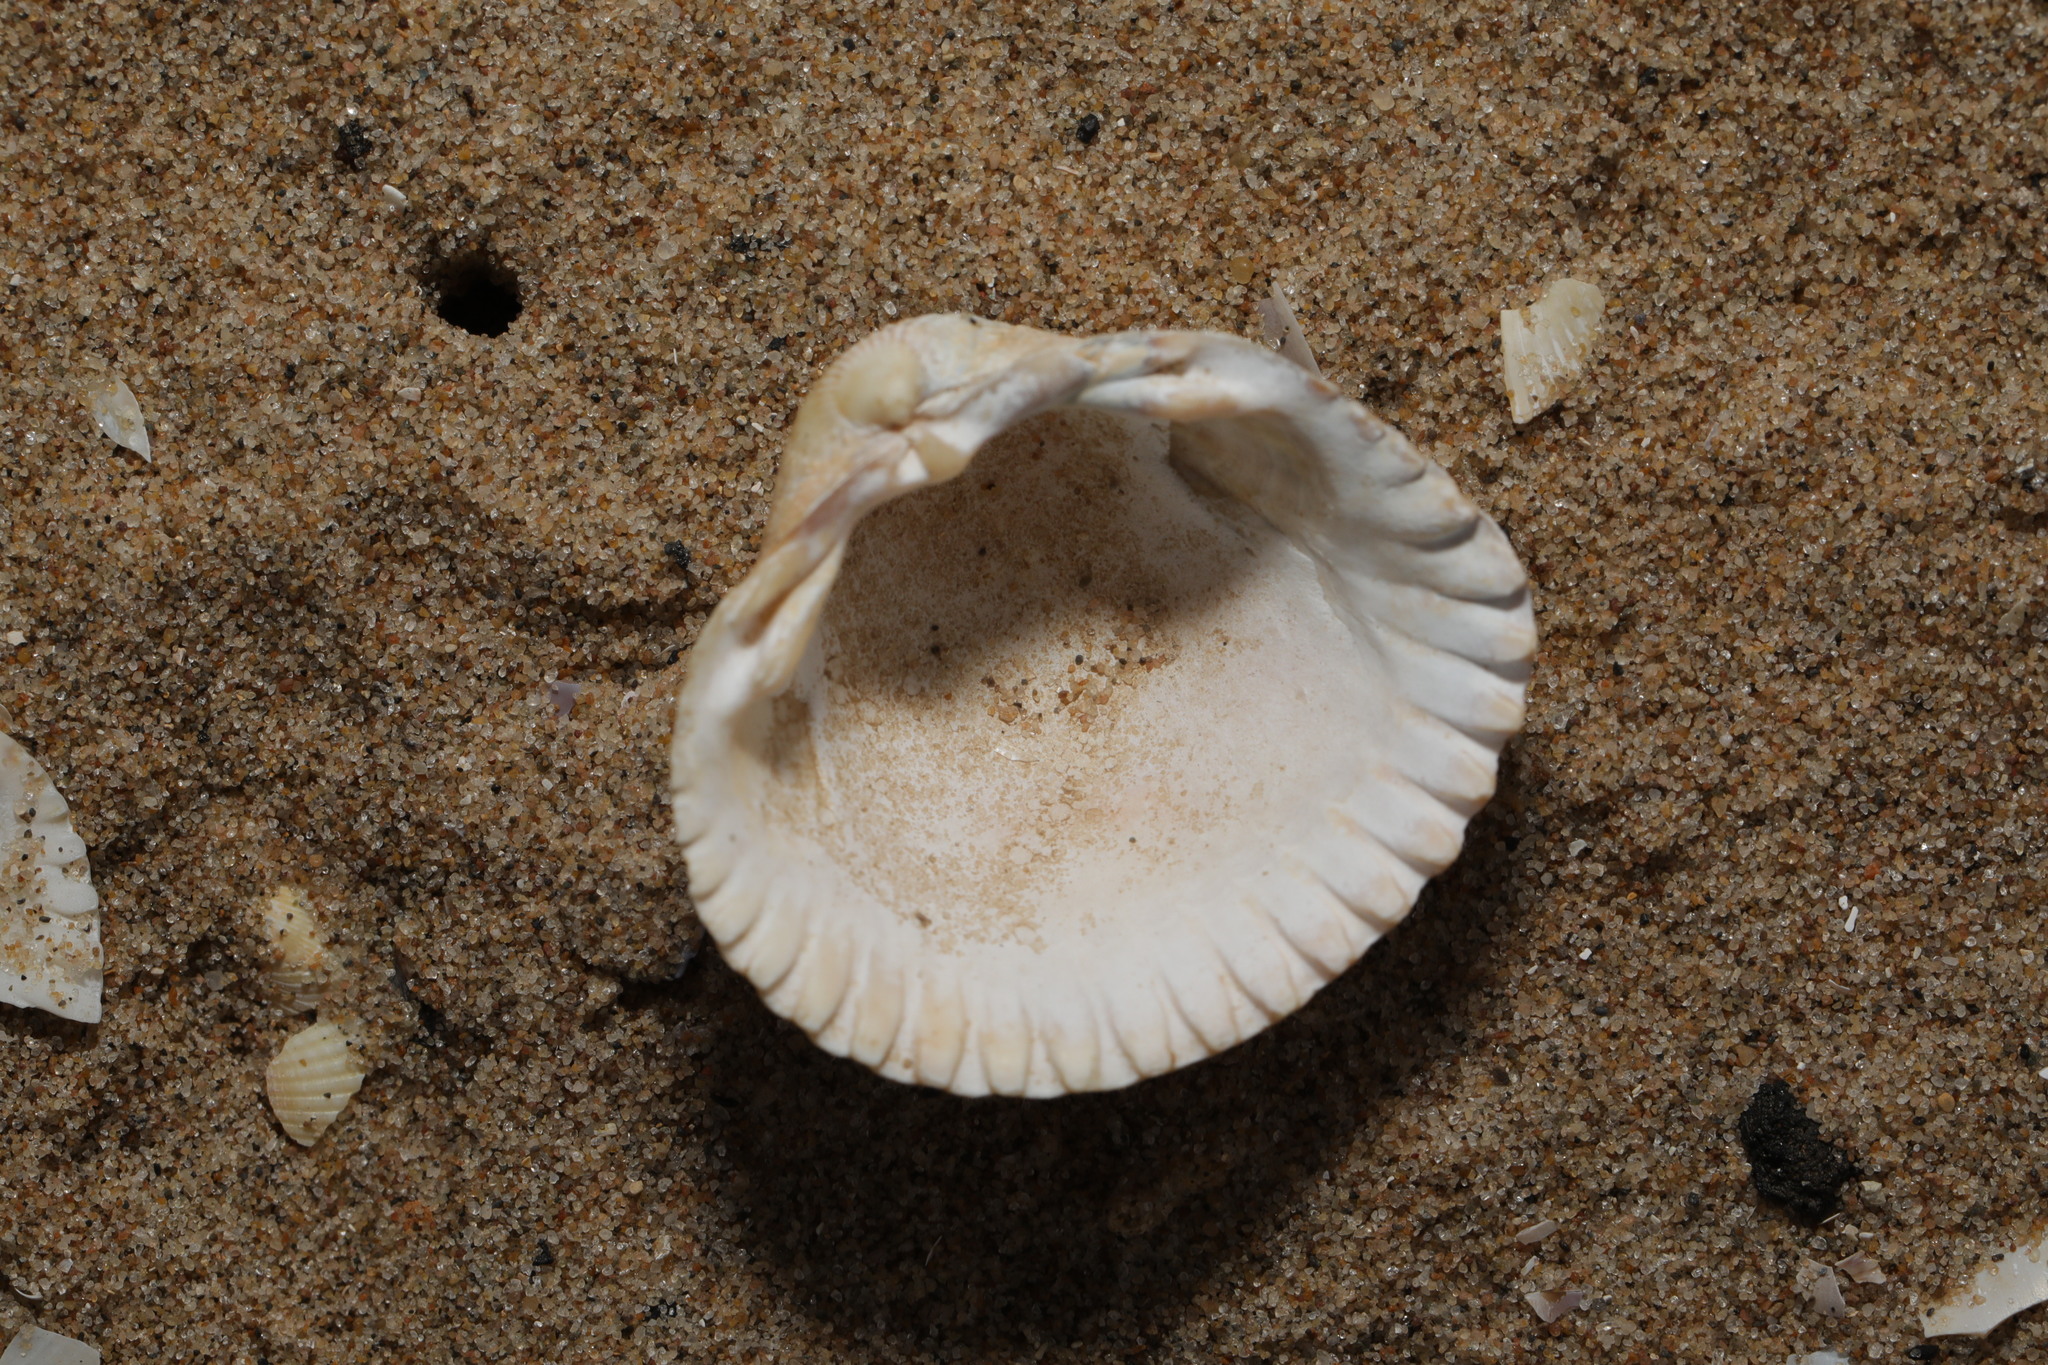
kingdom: Animalia
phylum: Mollusca
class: Bivalvia
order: Cardiida
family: Cardiidae
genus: Cerastoderma
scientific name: Cerastoderma edule
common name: Common cockle
